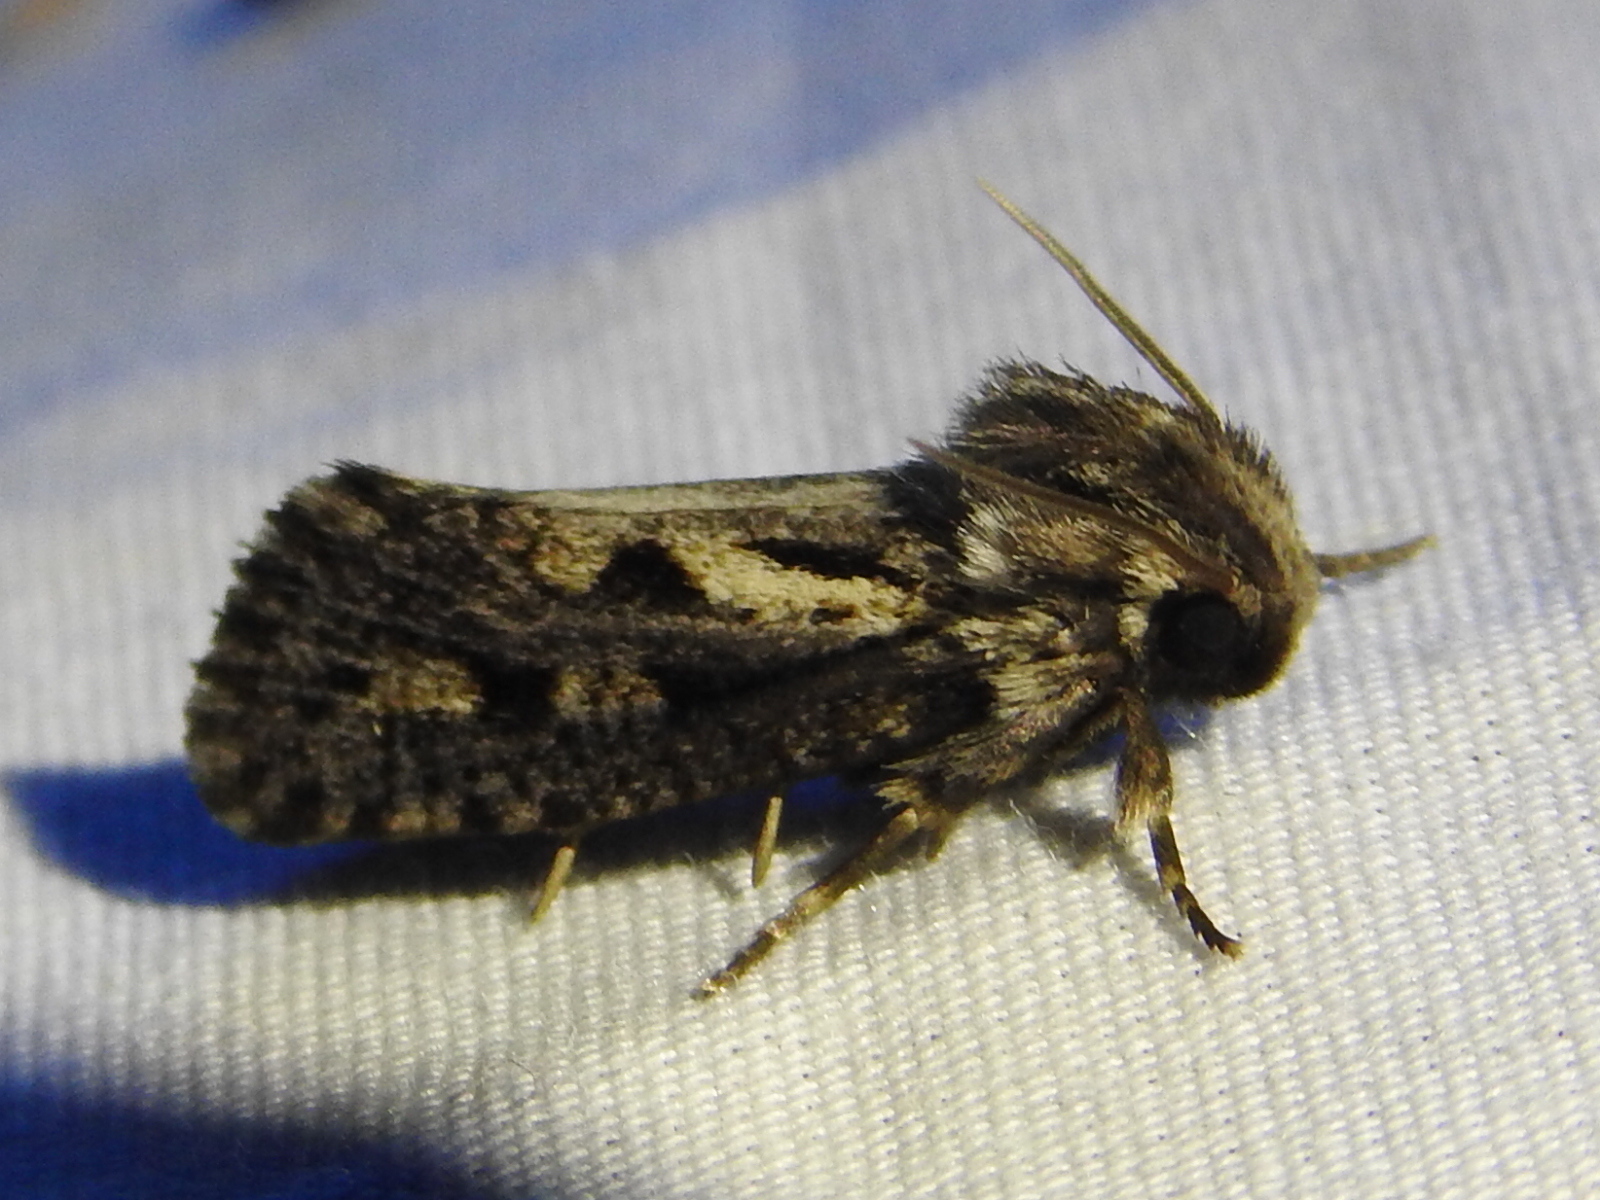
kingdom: Animalia
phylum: Arthropoda
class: Insecta
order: Lepidoptera
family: Tineidae
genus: Acrolophus
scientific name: Acrolophus popeanella
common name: Clemens' grass tubeworm moth
